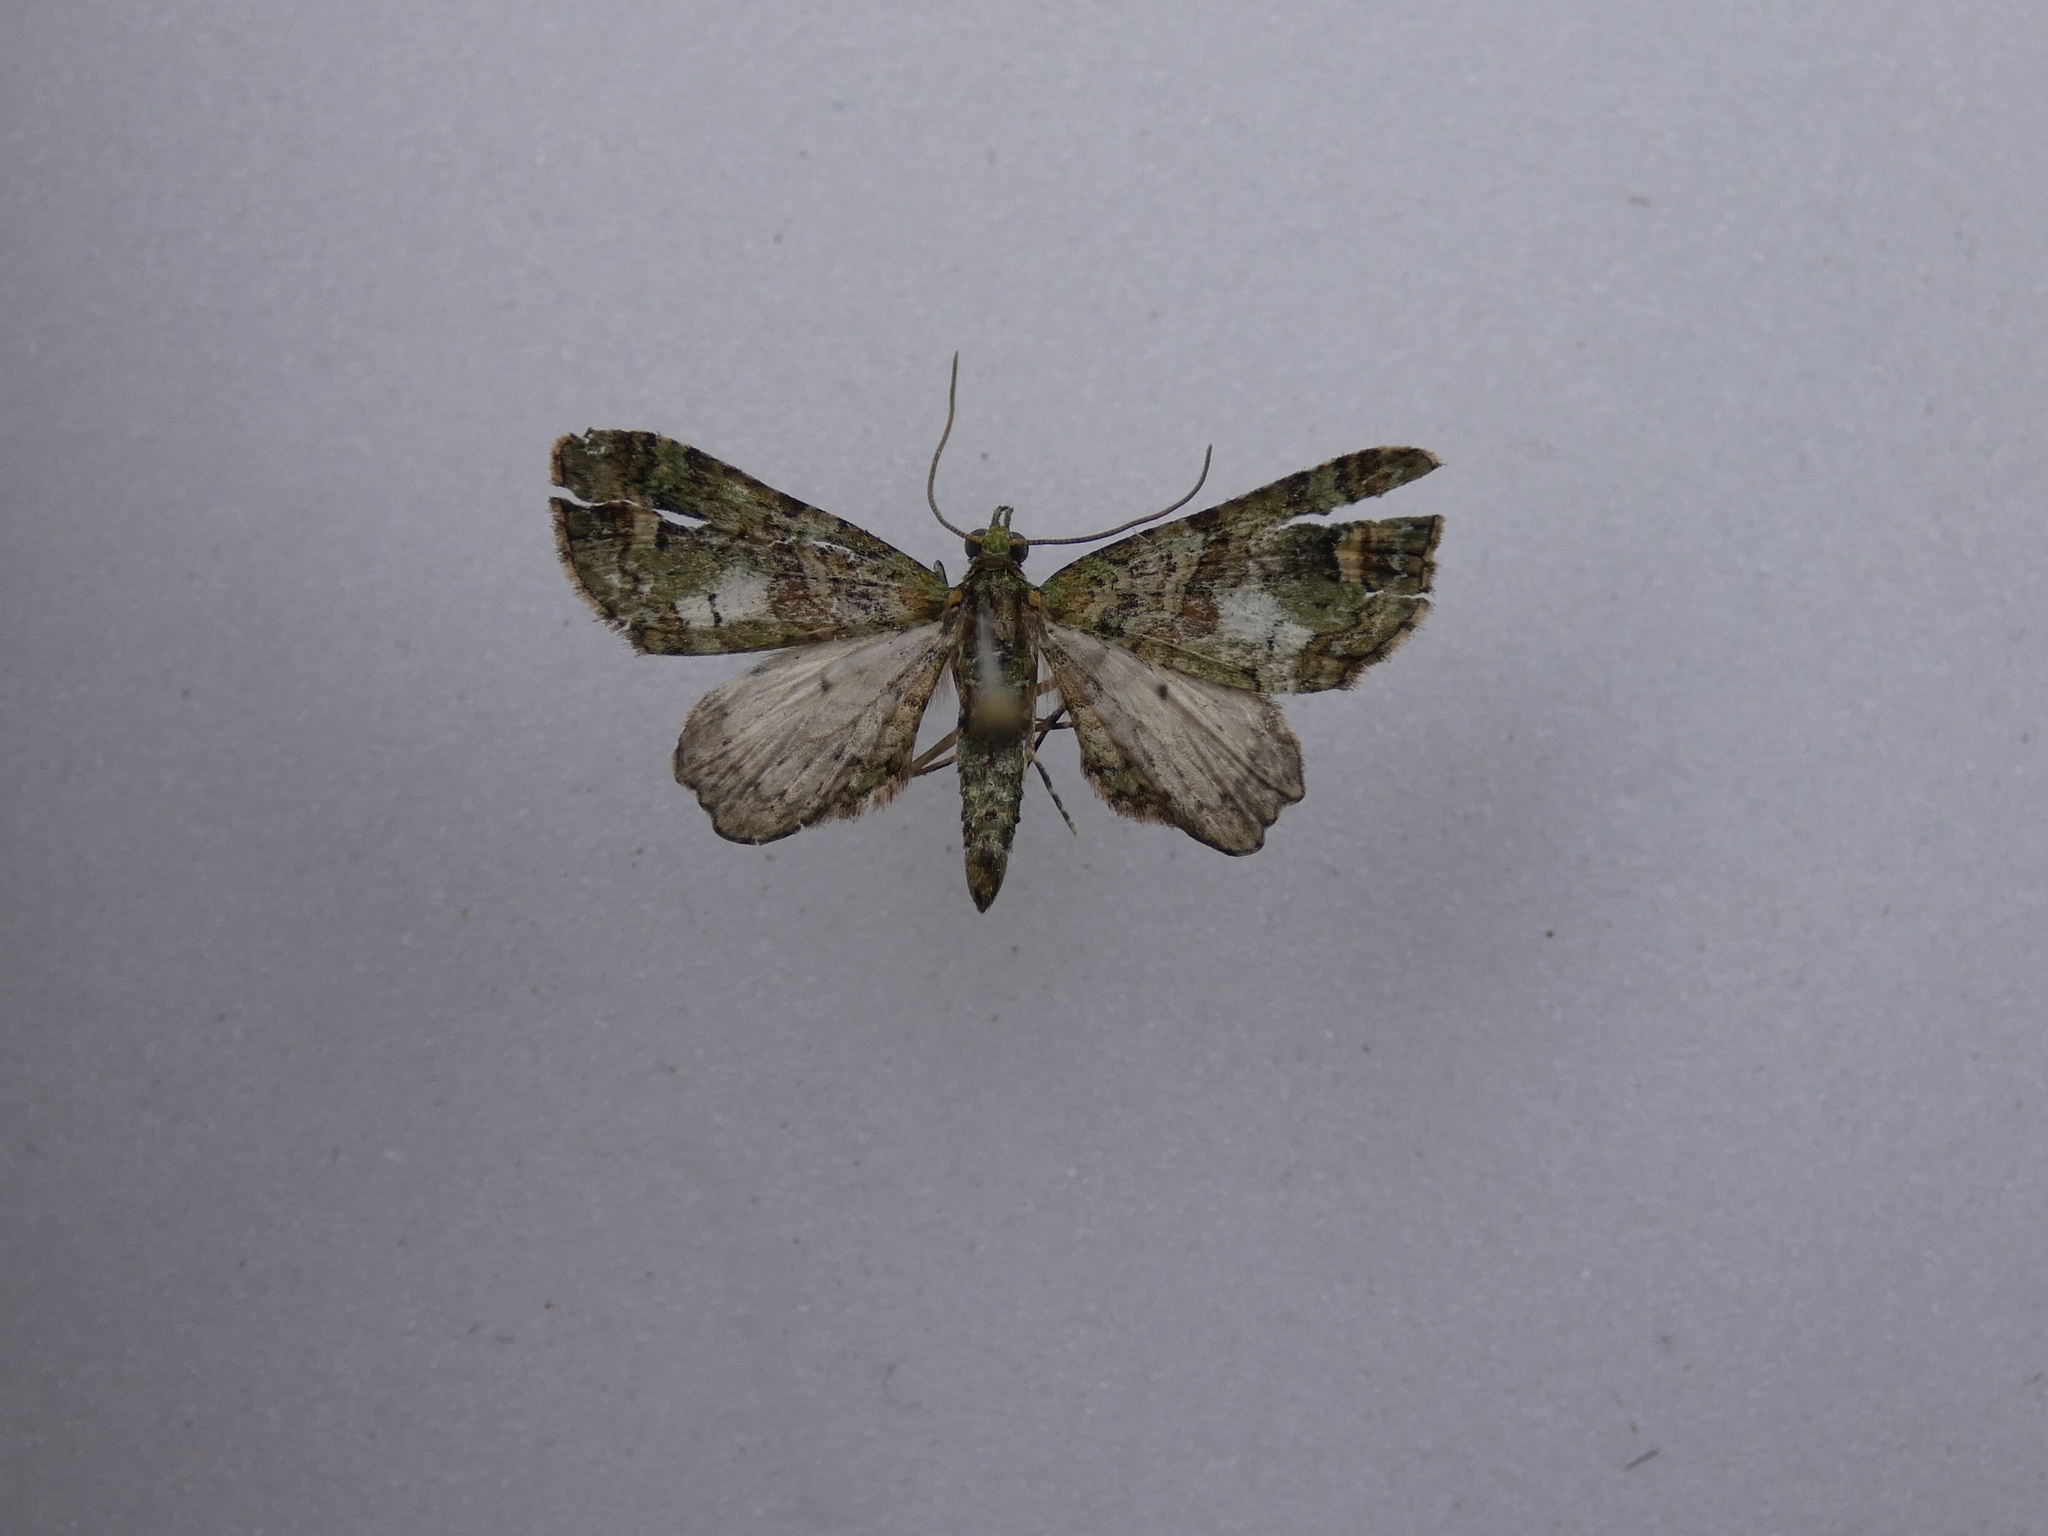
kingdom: Animalia
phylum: Arthropoda
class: Insecta
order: Lepidoptera
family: Geometridae
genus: Idaea
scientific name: Idaea mutanda
